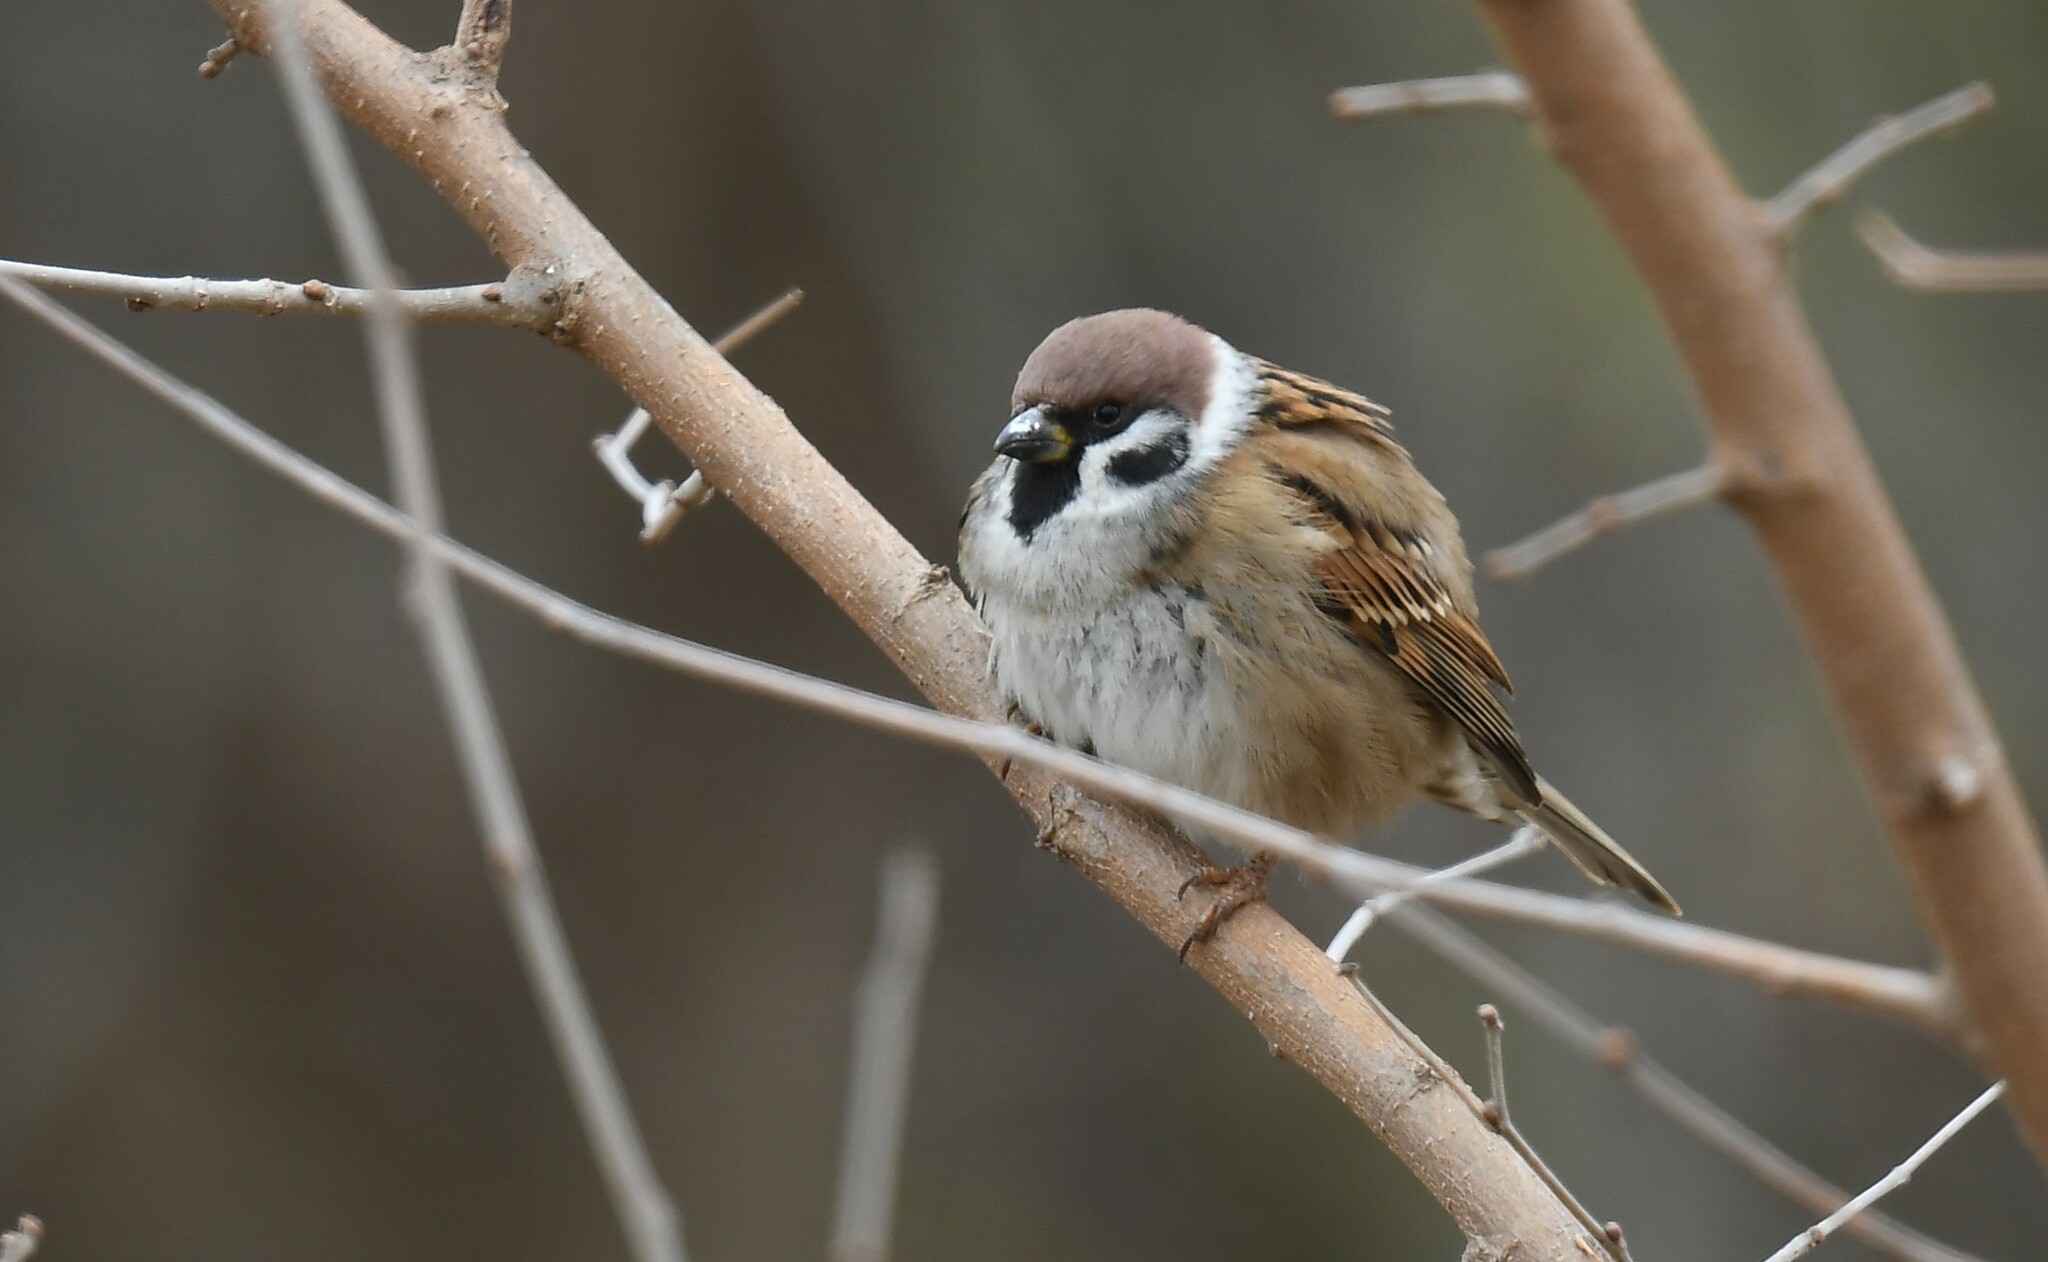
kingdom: Animalia
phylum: Chordata
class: Aves
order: Passeriformes
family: Passeridae
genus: Passer
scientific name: Passer montanus
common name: Eurasian tree sparrow
